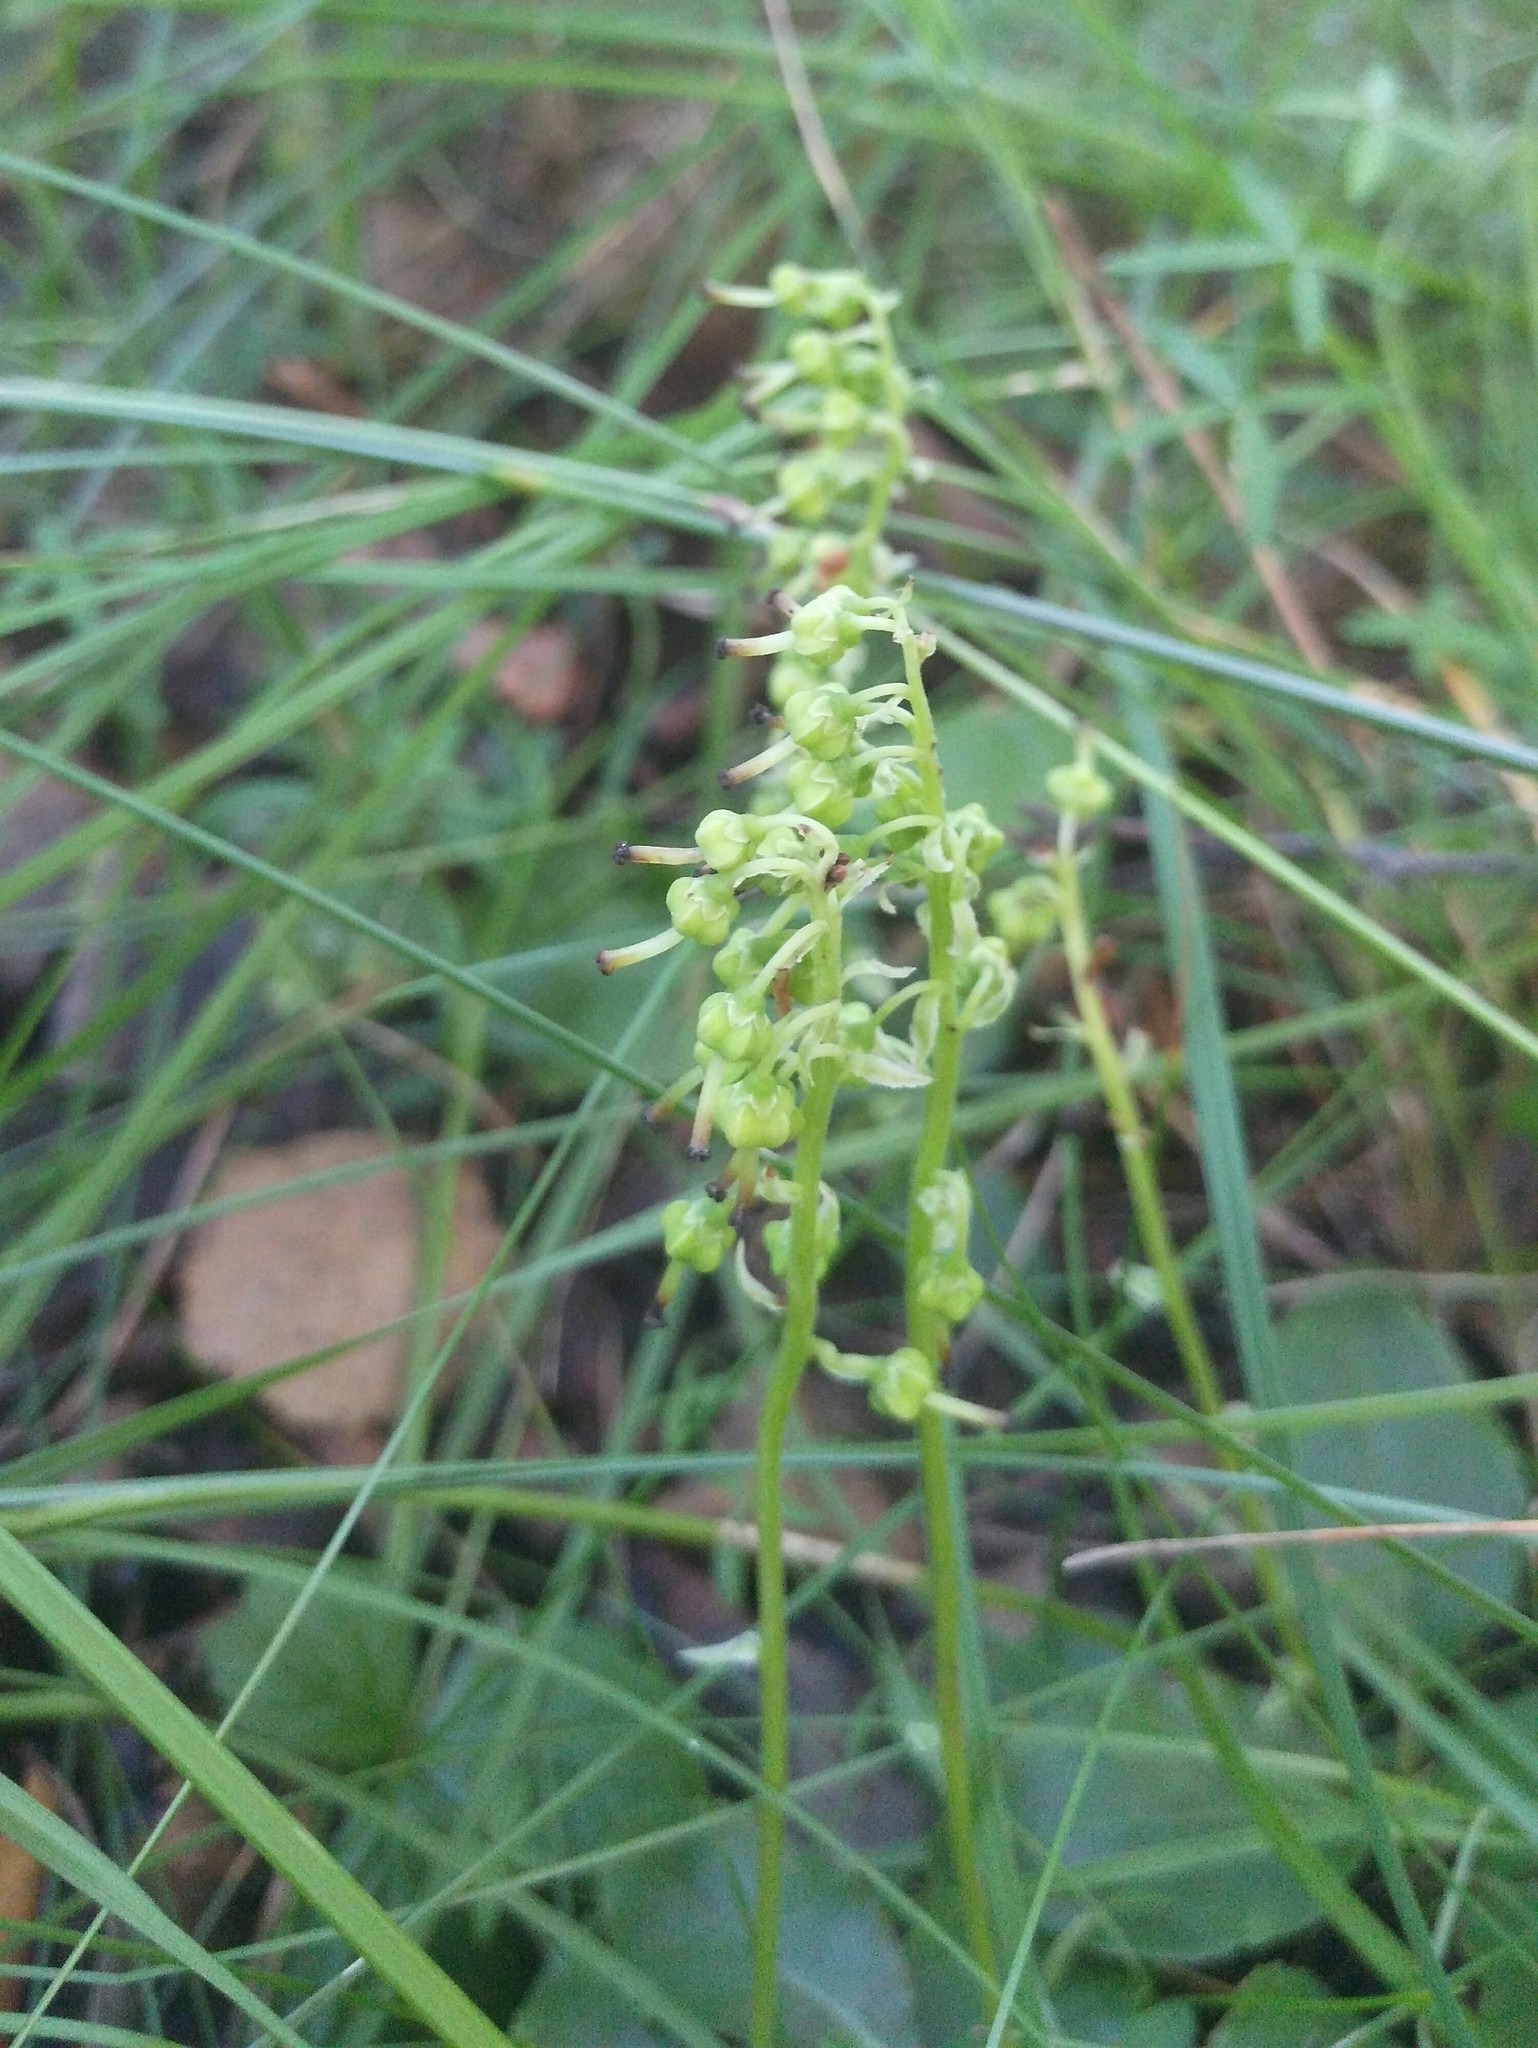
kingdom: Plantae
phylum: Tracheophyta
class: Magnoliopsida
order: Ericales
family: Ericaceae
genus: Orthilia
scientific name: Orthilia secunda
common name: One-sided orthilia
